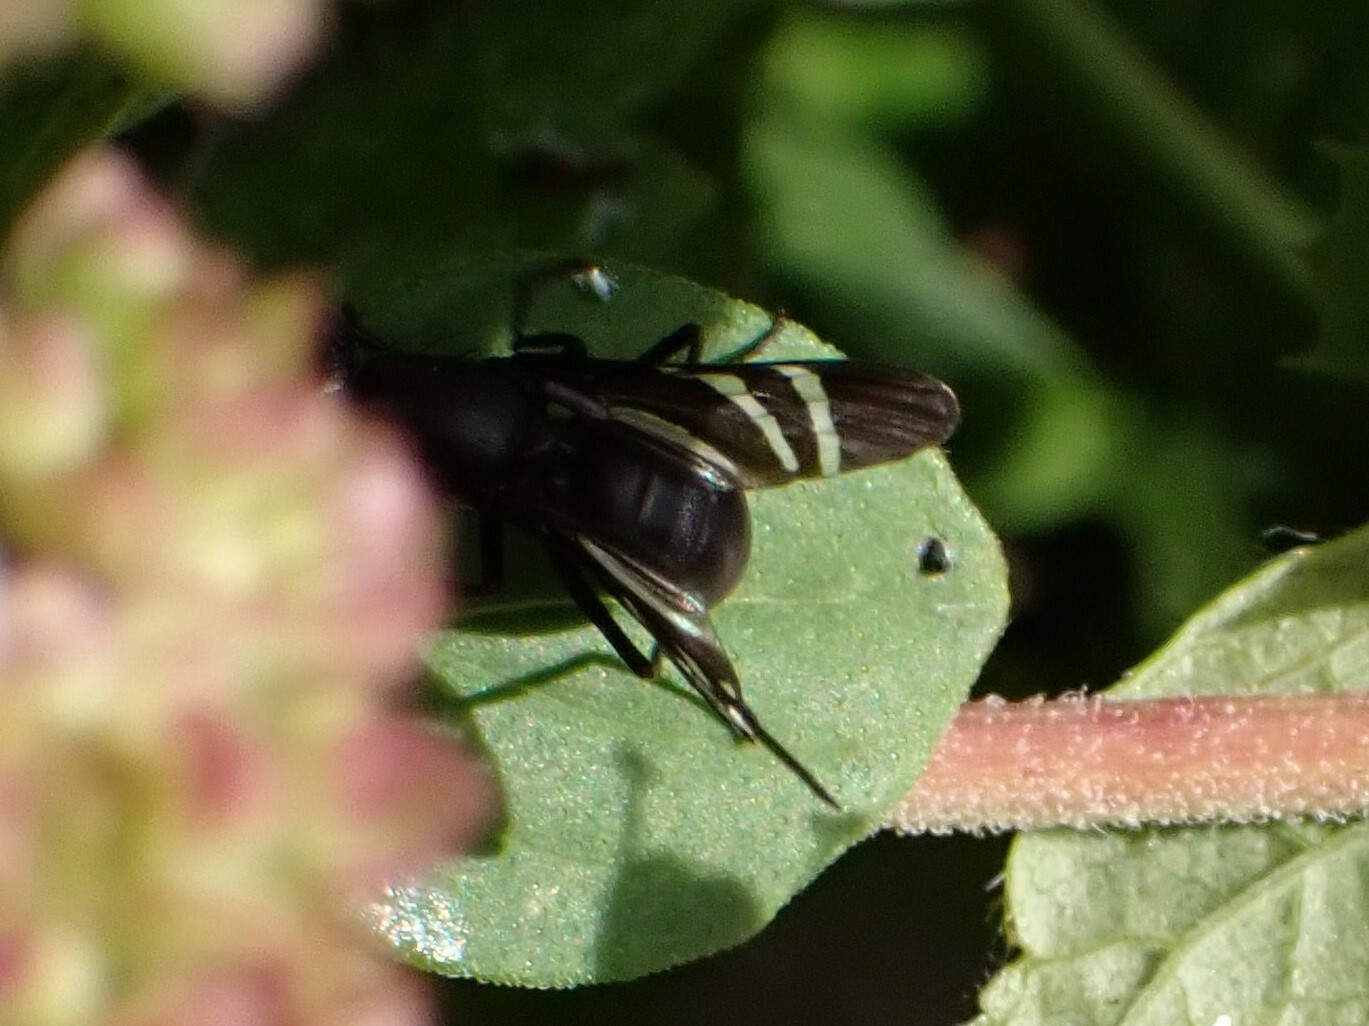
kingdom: Animalia
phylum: Arthropoda
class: Insecta
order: Diptera
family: Ulidiidae
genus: Tritoxa
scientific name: Tritoxa flexa
